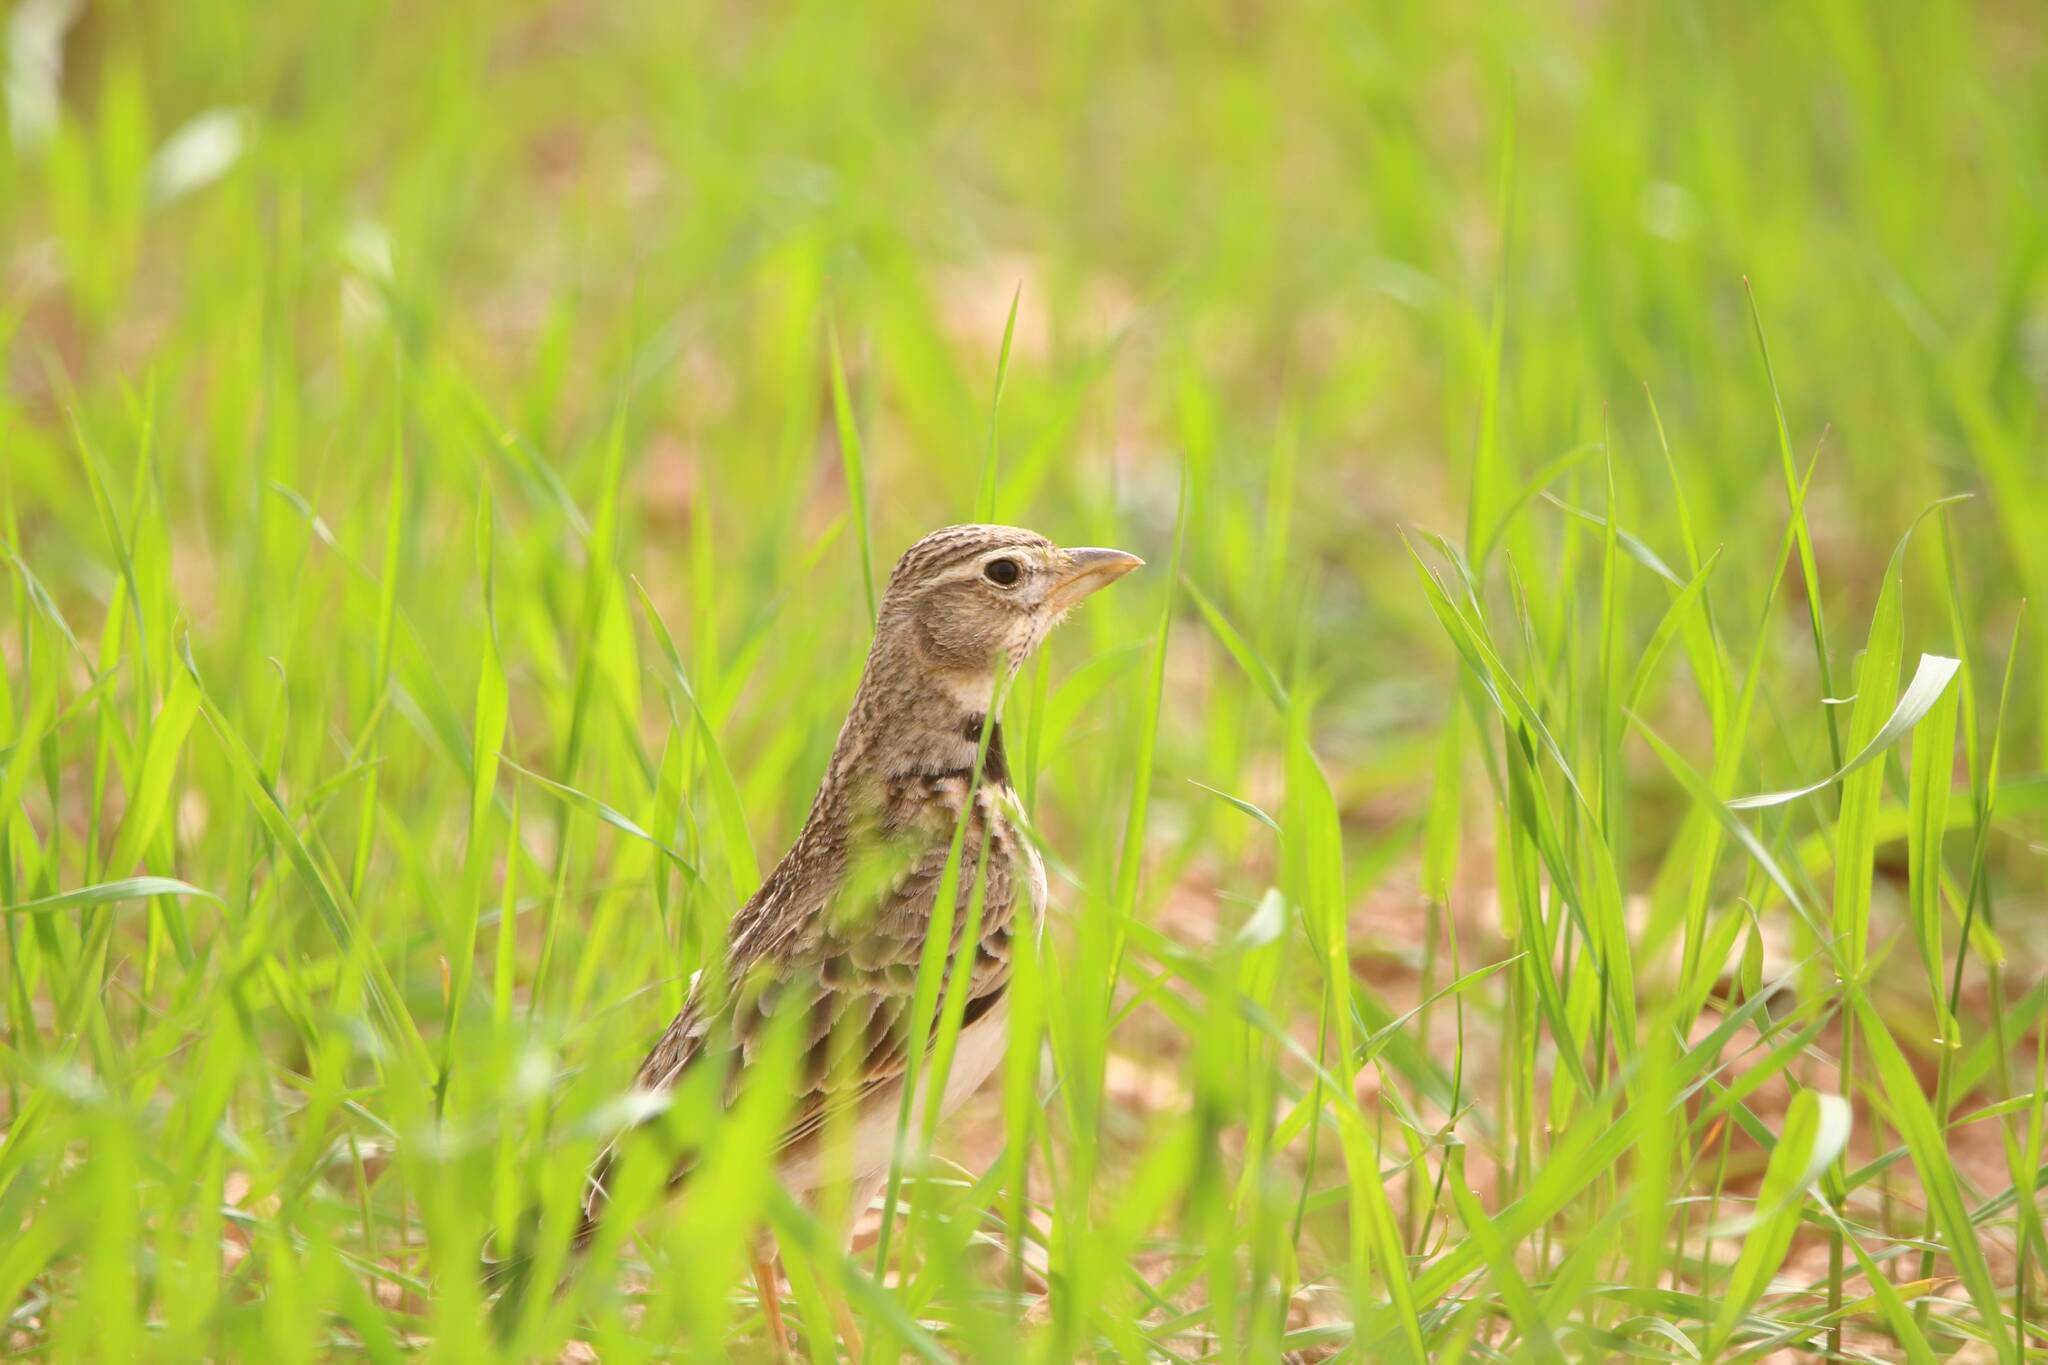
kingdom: Animalia
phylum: Chordata
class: Aves
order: Passeriformes
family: Alaudidae
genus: Melanocorypha
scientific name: Melanocorypha calandra
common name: Calandra lark
